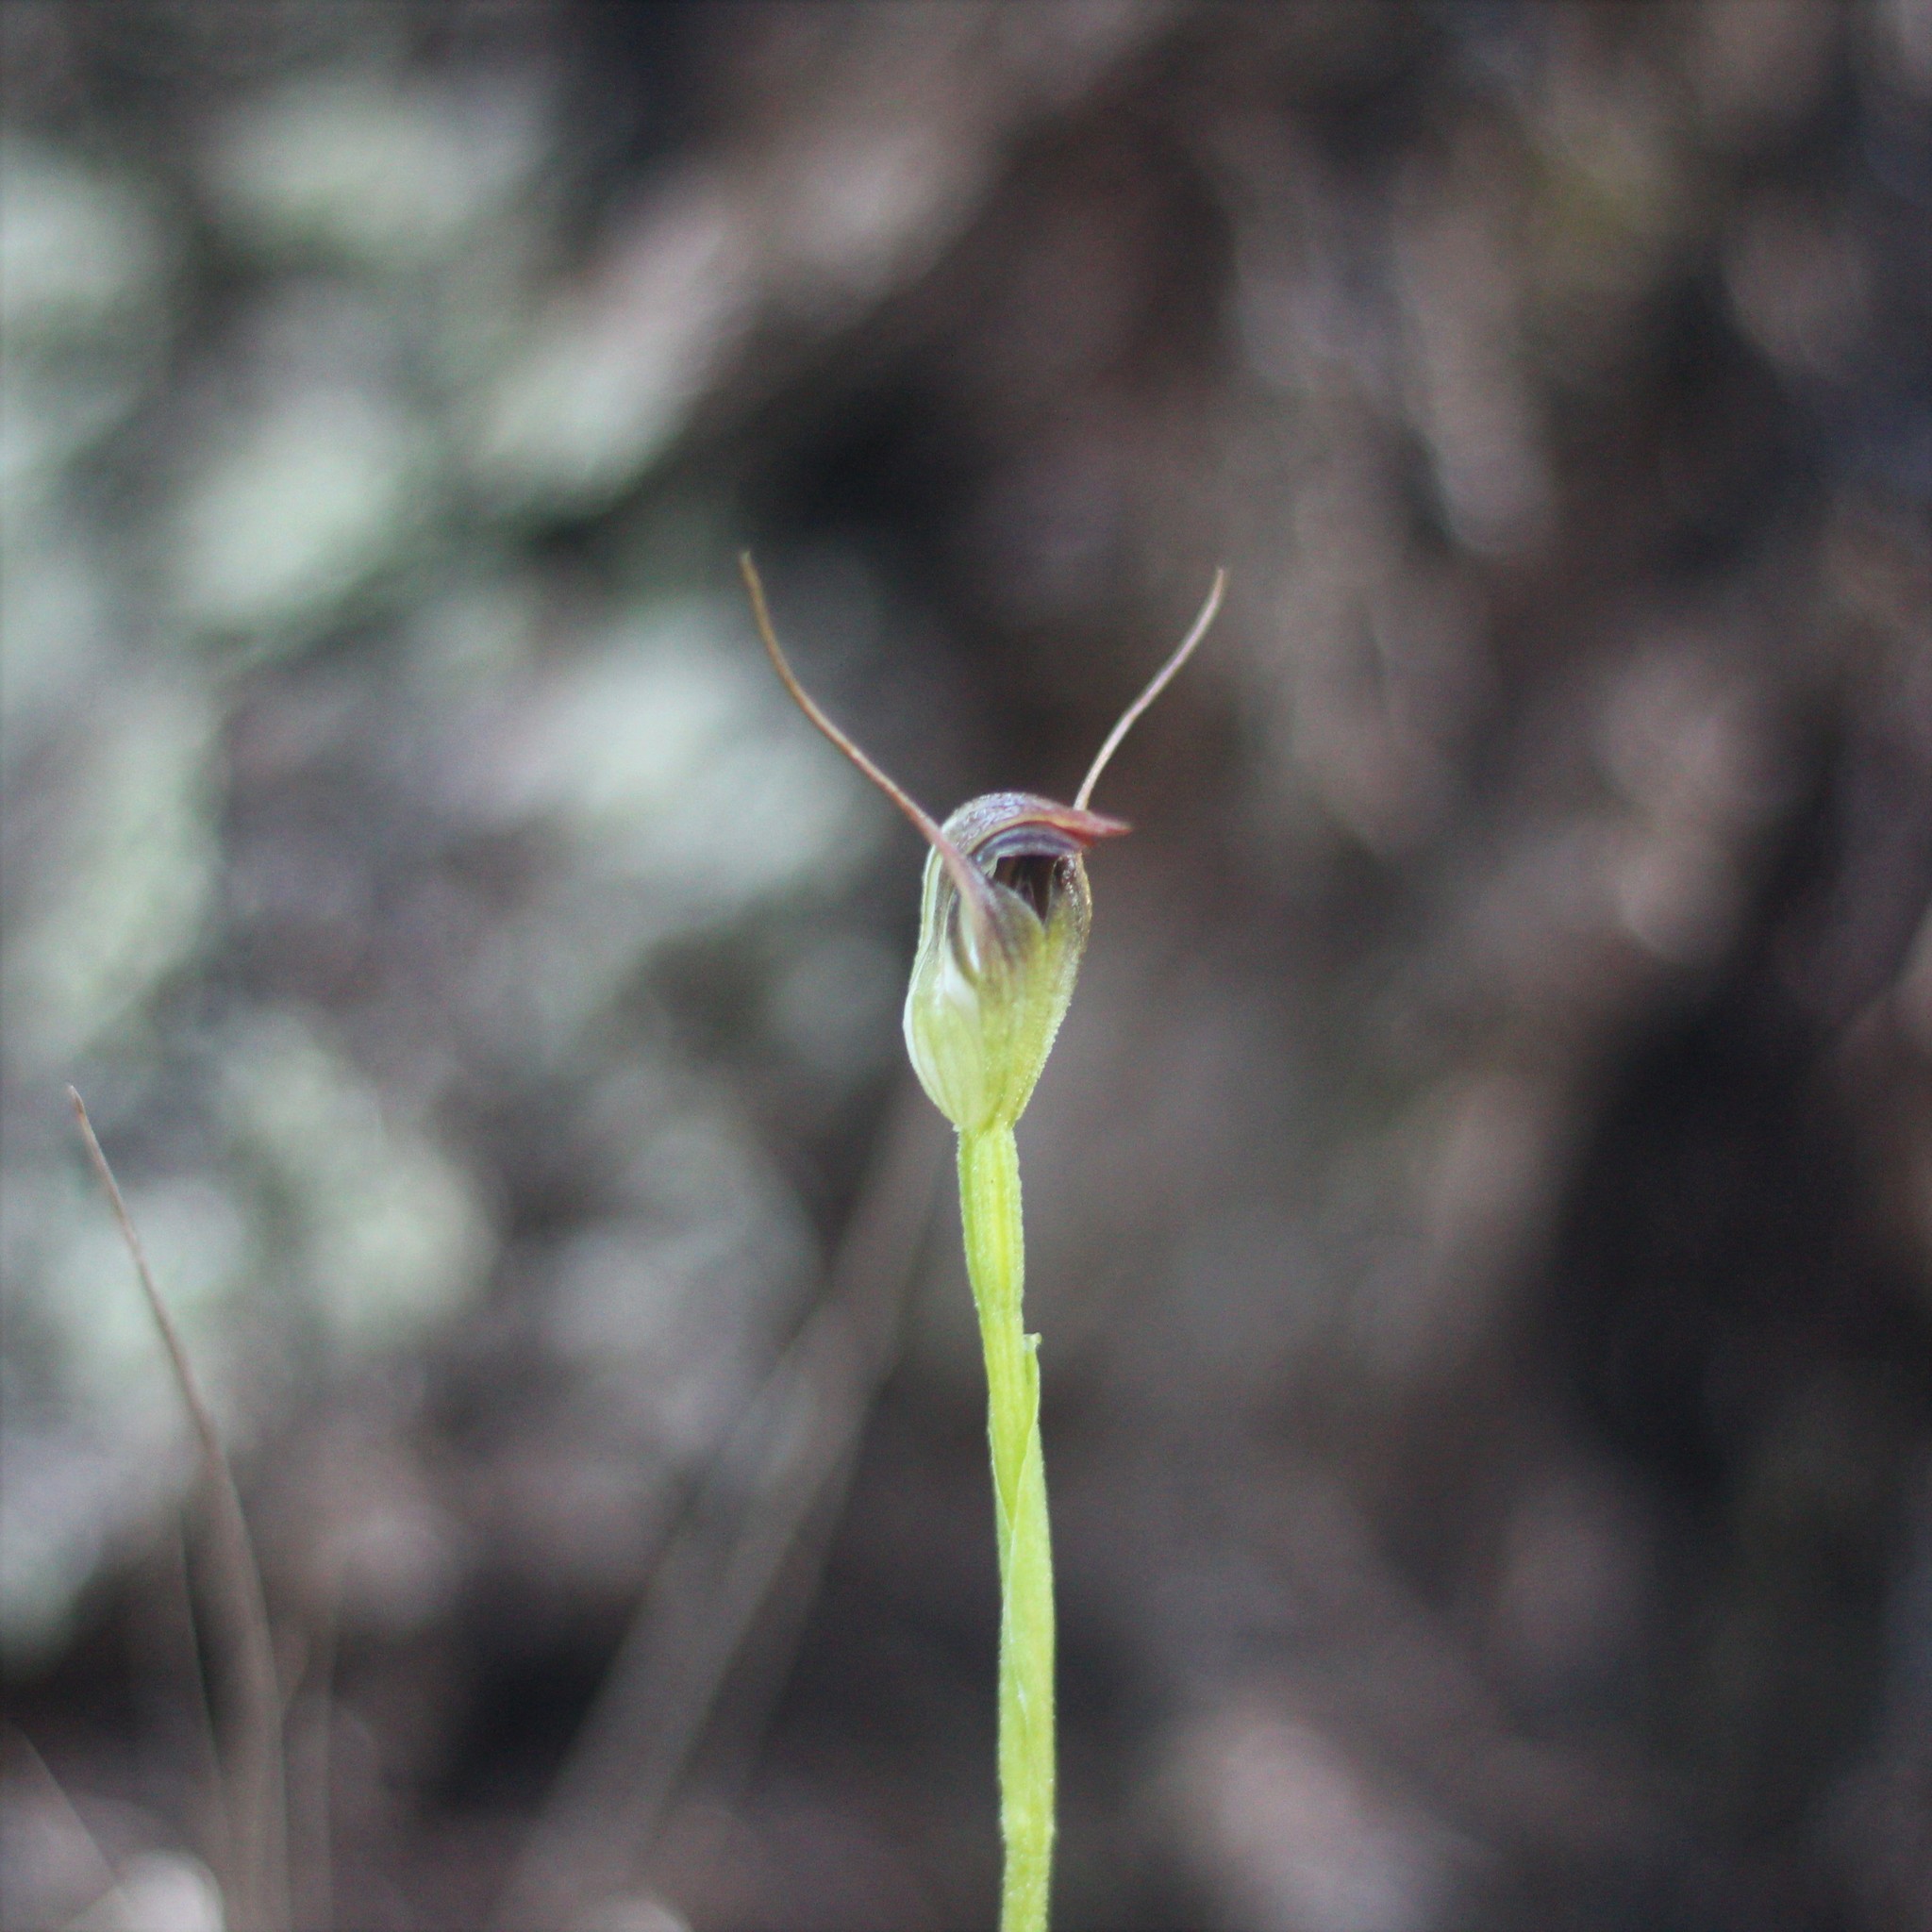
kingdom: Plantae
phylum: Tracheophyta
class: Liliopsida
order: Asparagales
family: Orchidaceae
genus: Pterostylis
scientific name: Pterostylis pedunculata
